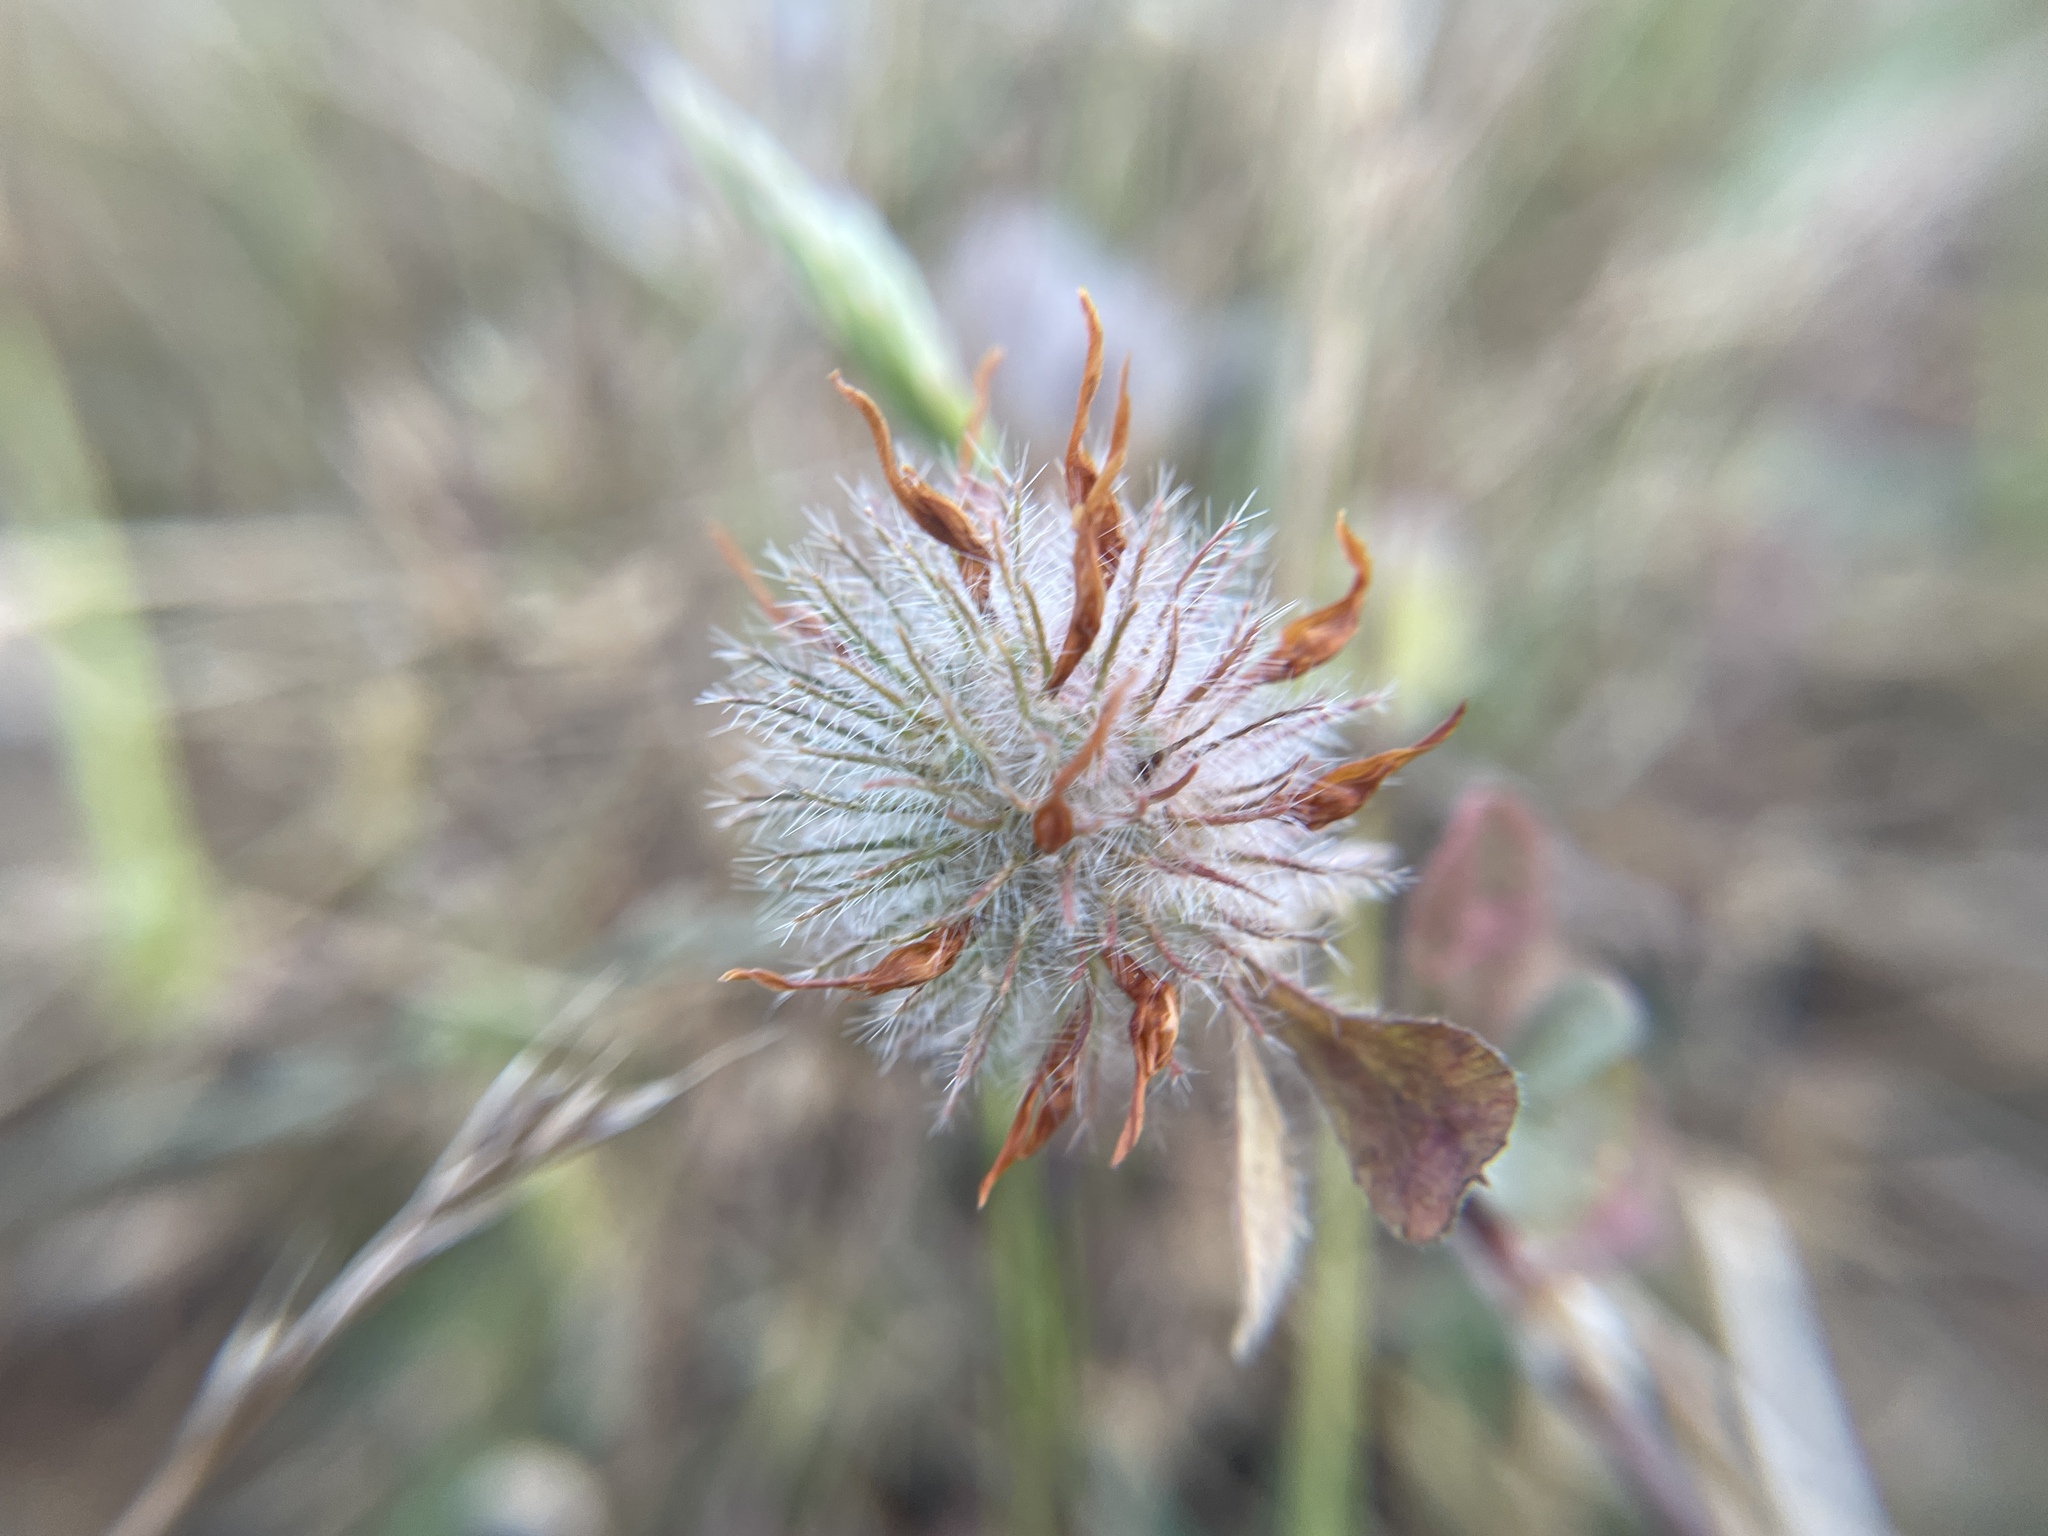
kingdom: Plantae
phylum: Tracheophyta
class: Magnoliopsida
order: Fabales
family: Fabaceae
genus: Trifolium
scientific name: Trifolium hirtum
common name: Rose clover
